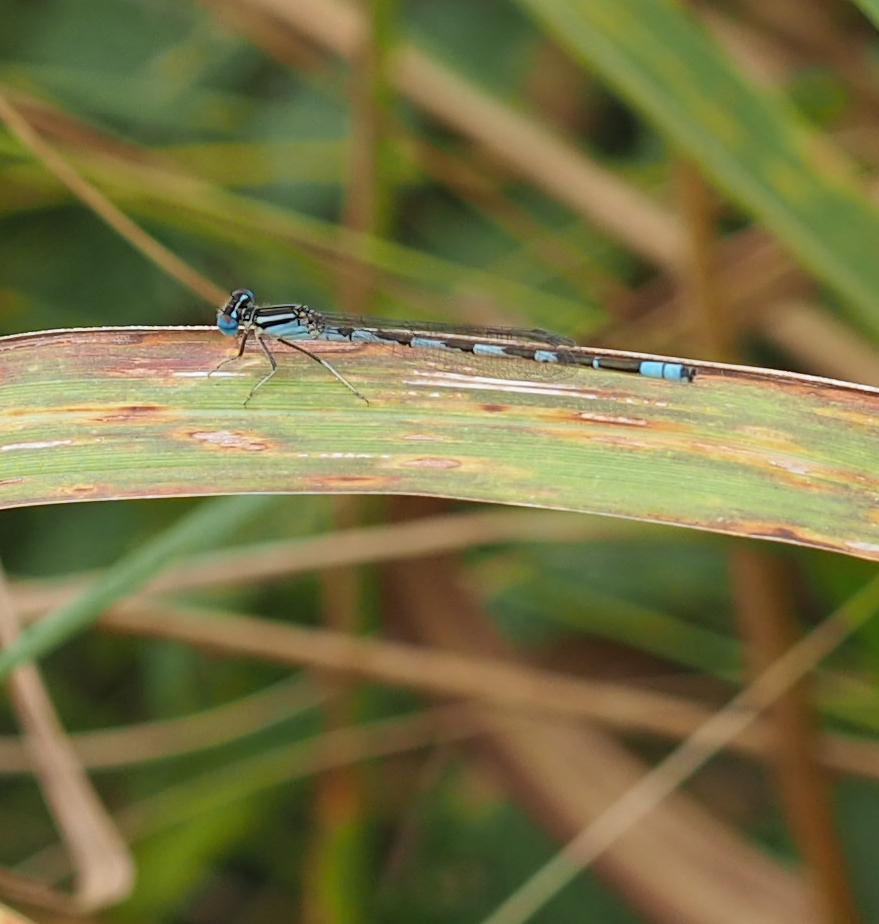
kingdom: Animalia
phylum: Arthropoda
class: Insecta
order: Odonata
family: Coenagrionidae
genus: Enallagma
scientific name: Enallagma durum
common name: Big bluet
